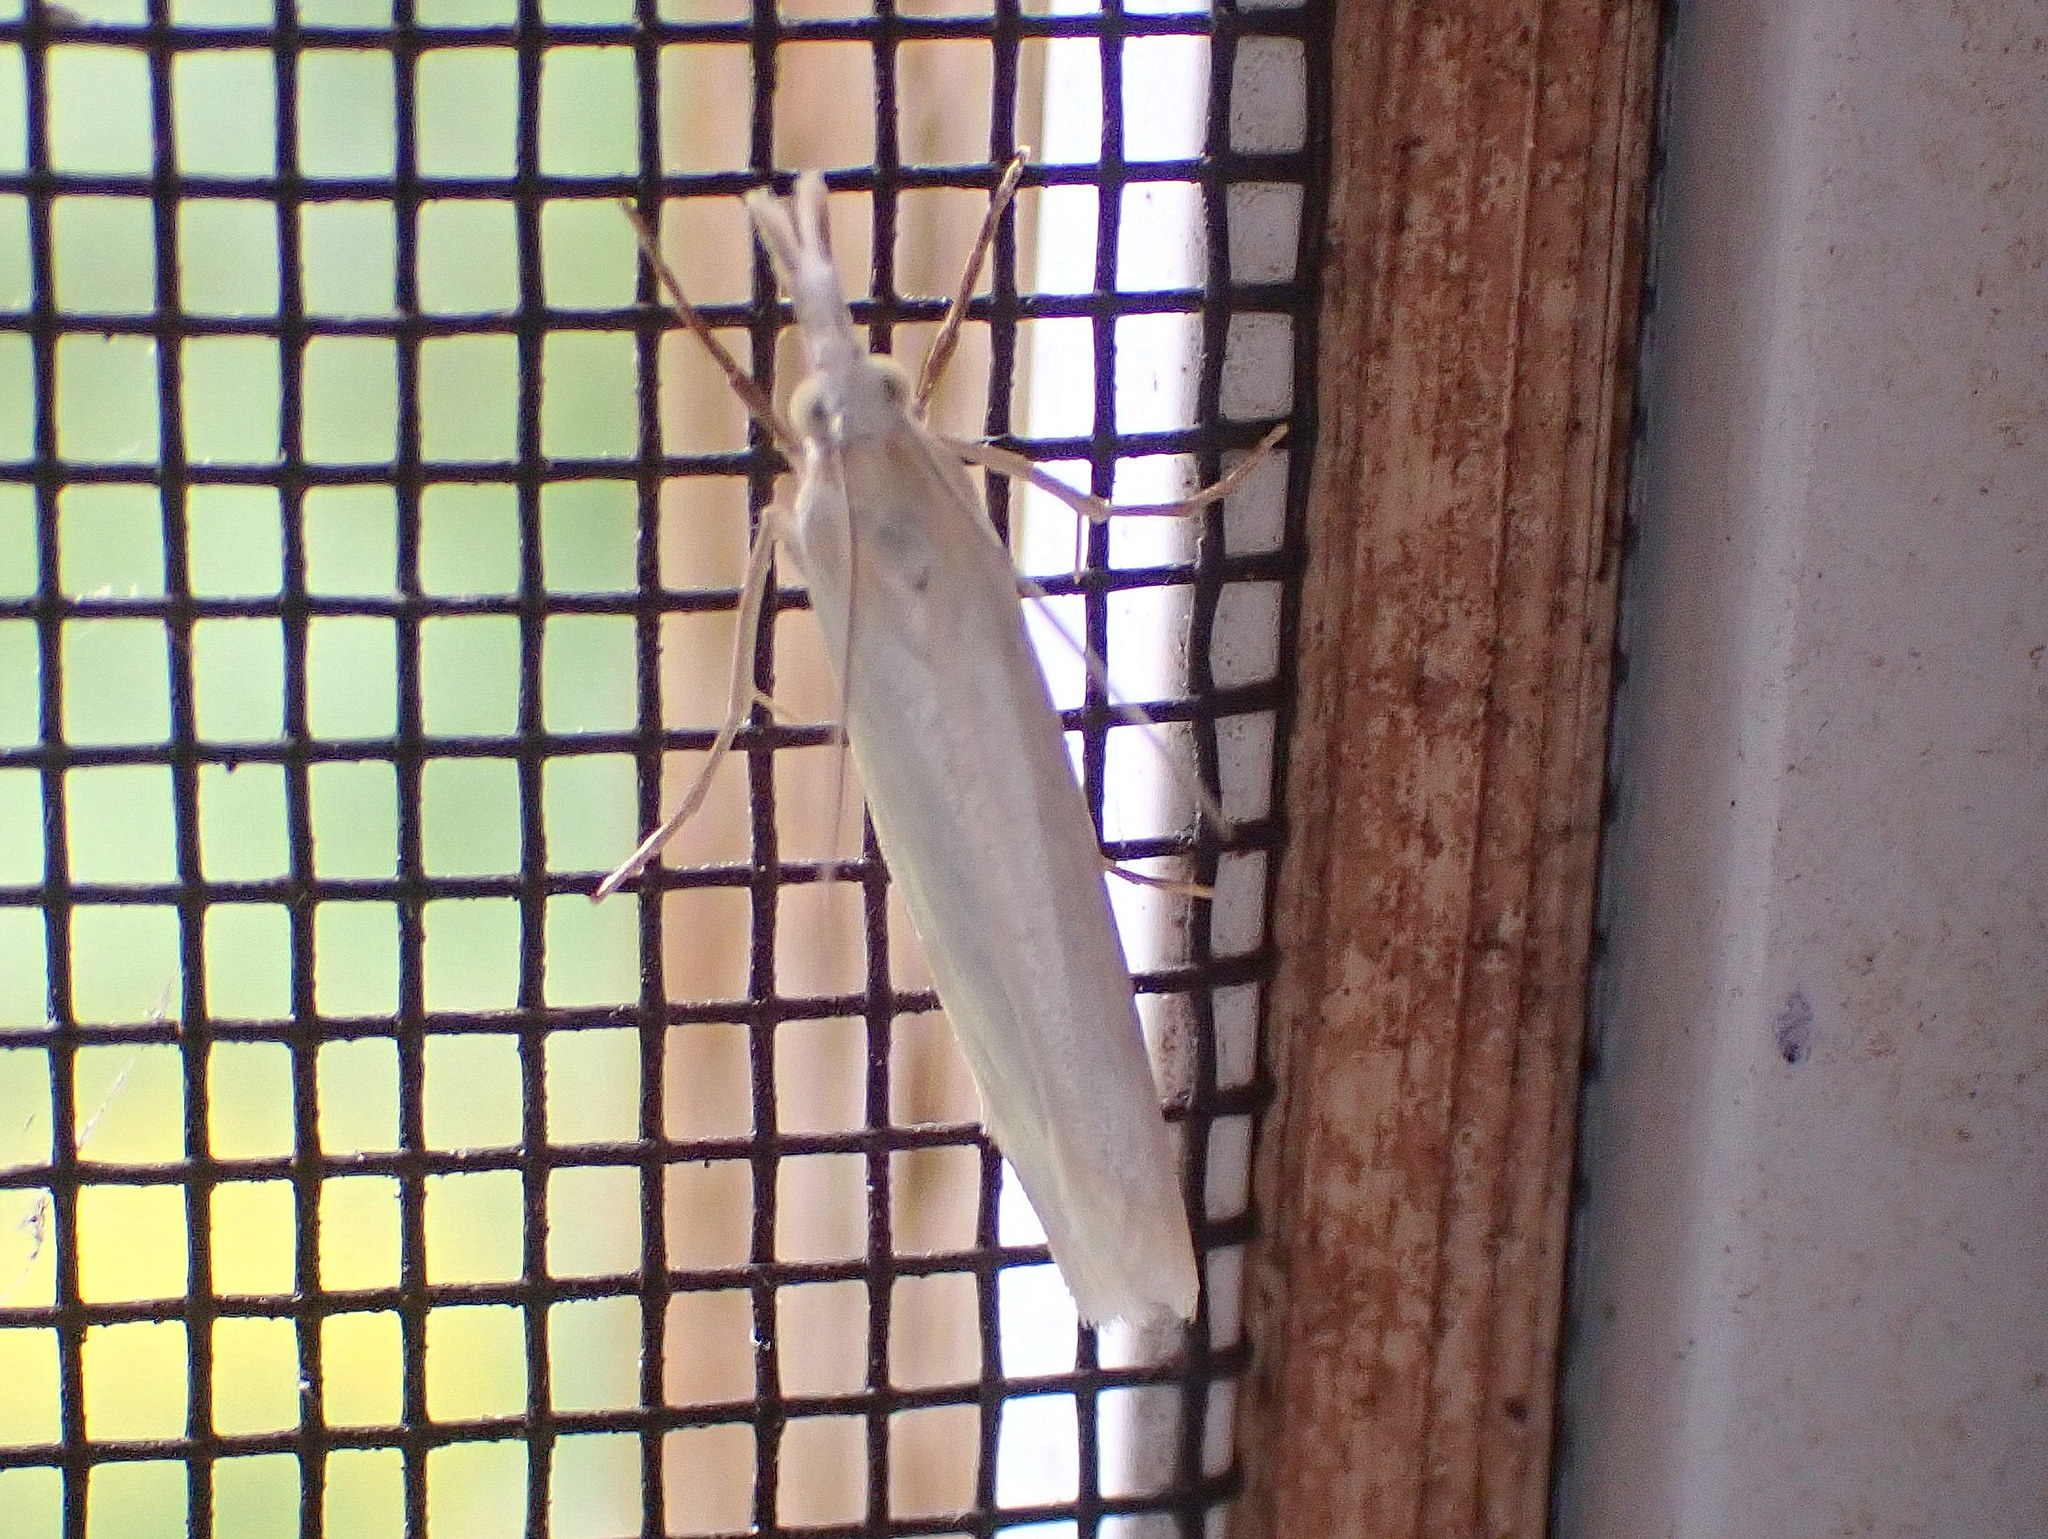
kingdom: Animalia
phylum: Arthropoda
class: Insecta
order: Lepidoptera
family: Crambidae
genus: Crambus
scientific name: Crambus perlellus
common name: Yellow satin veneer
